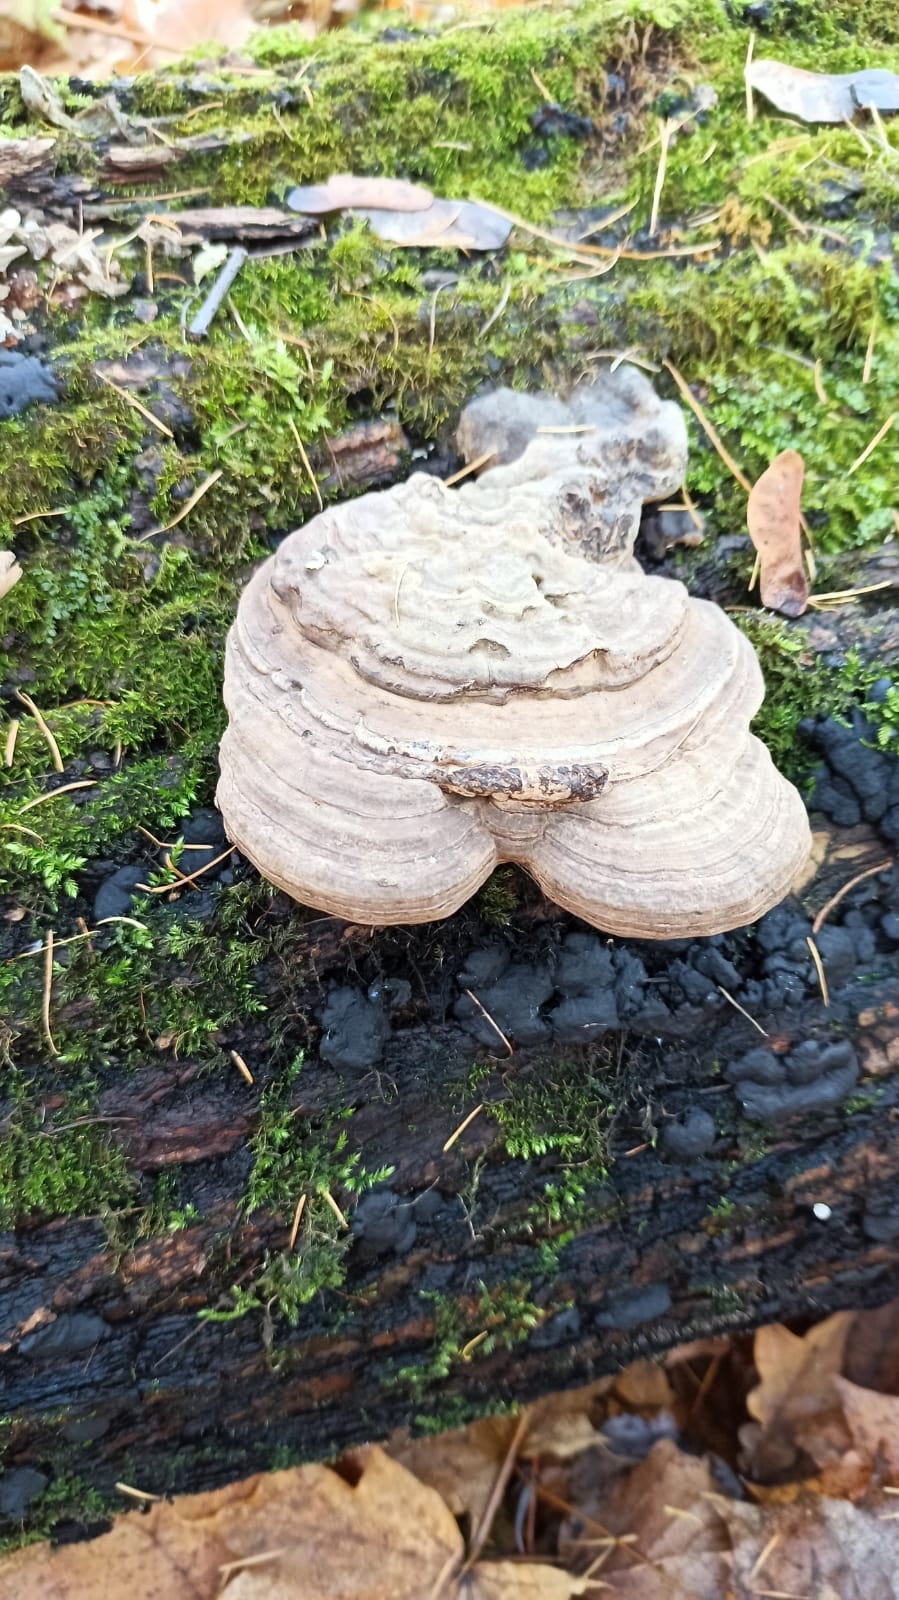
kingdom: Fungi
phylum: Basidiomycota
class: Agaricomycetes
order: Polyporales
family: Polyporaceae
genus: Ganoderma
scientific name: Ganoderma applanatum
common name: Artist's bracket
